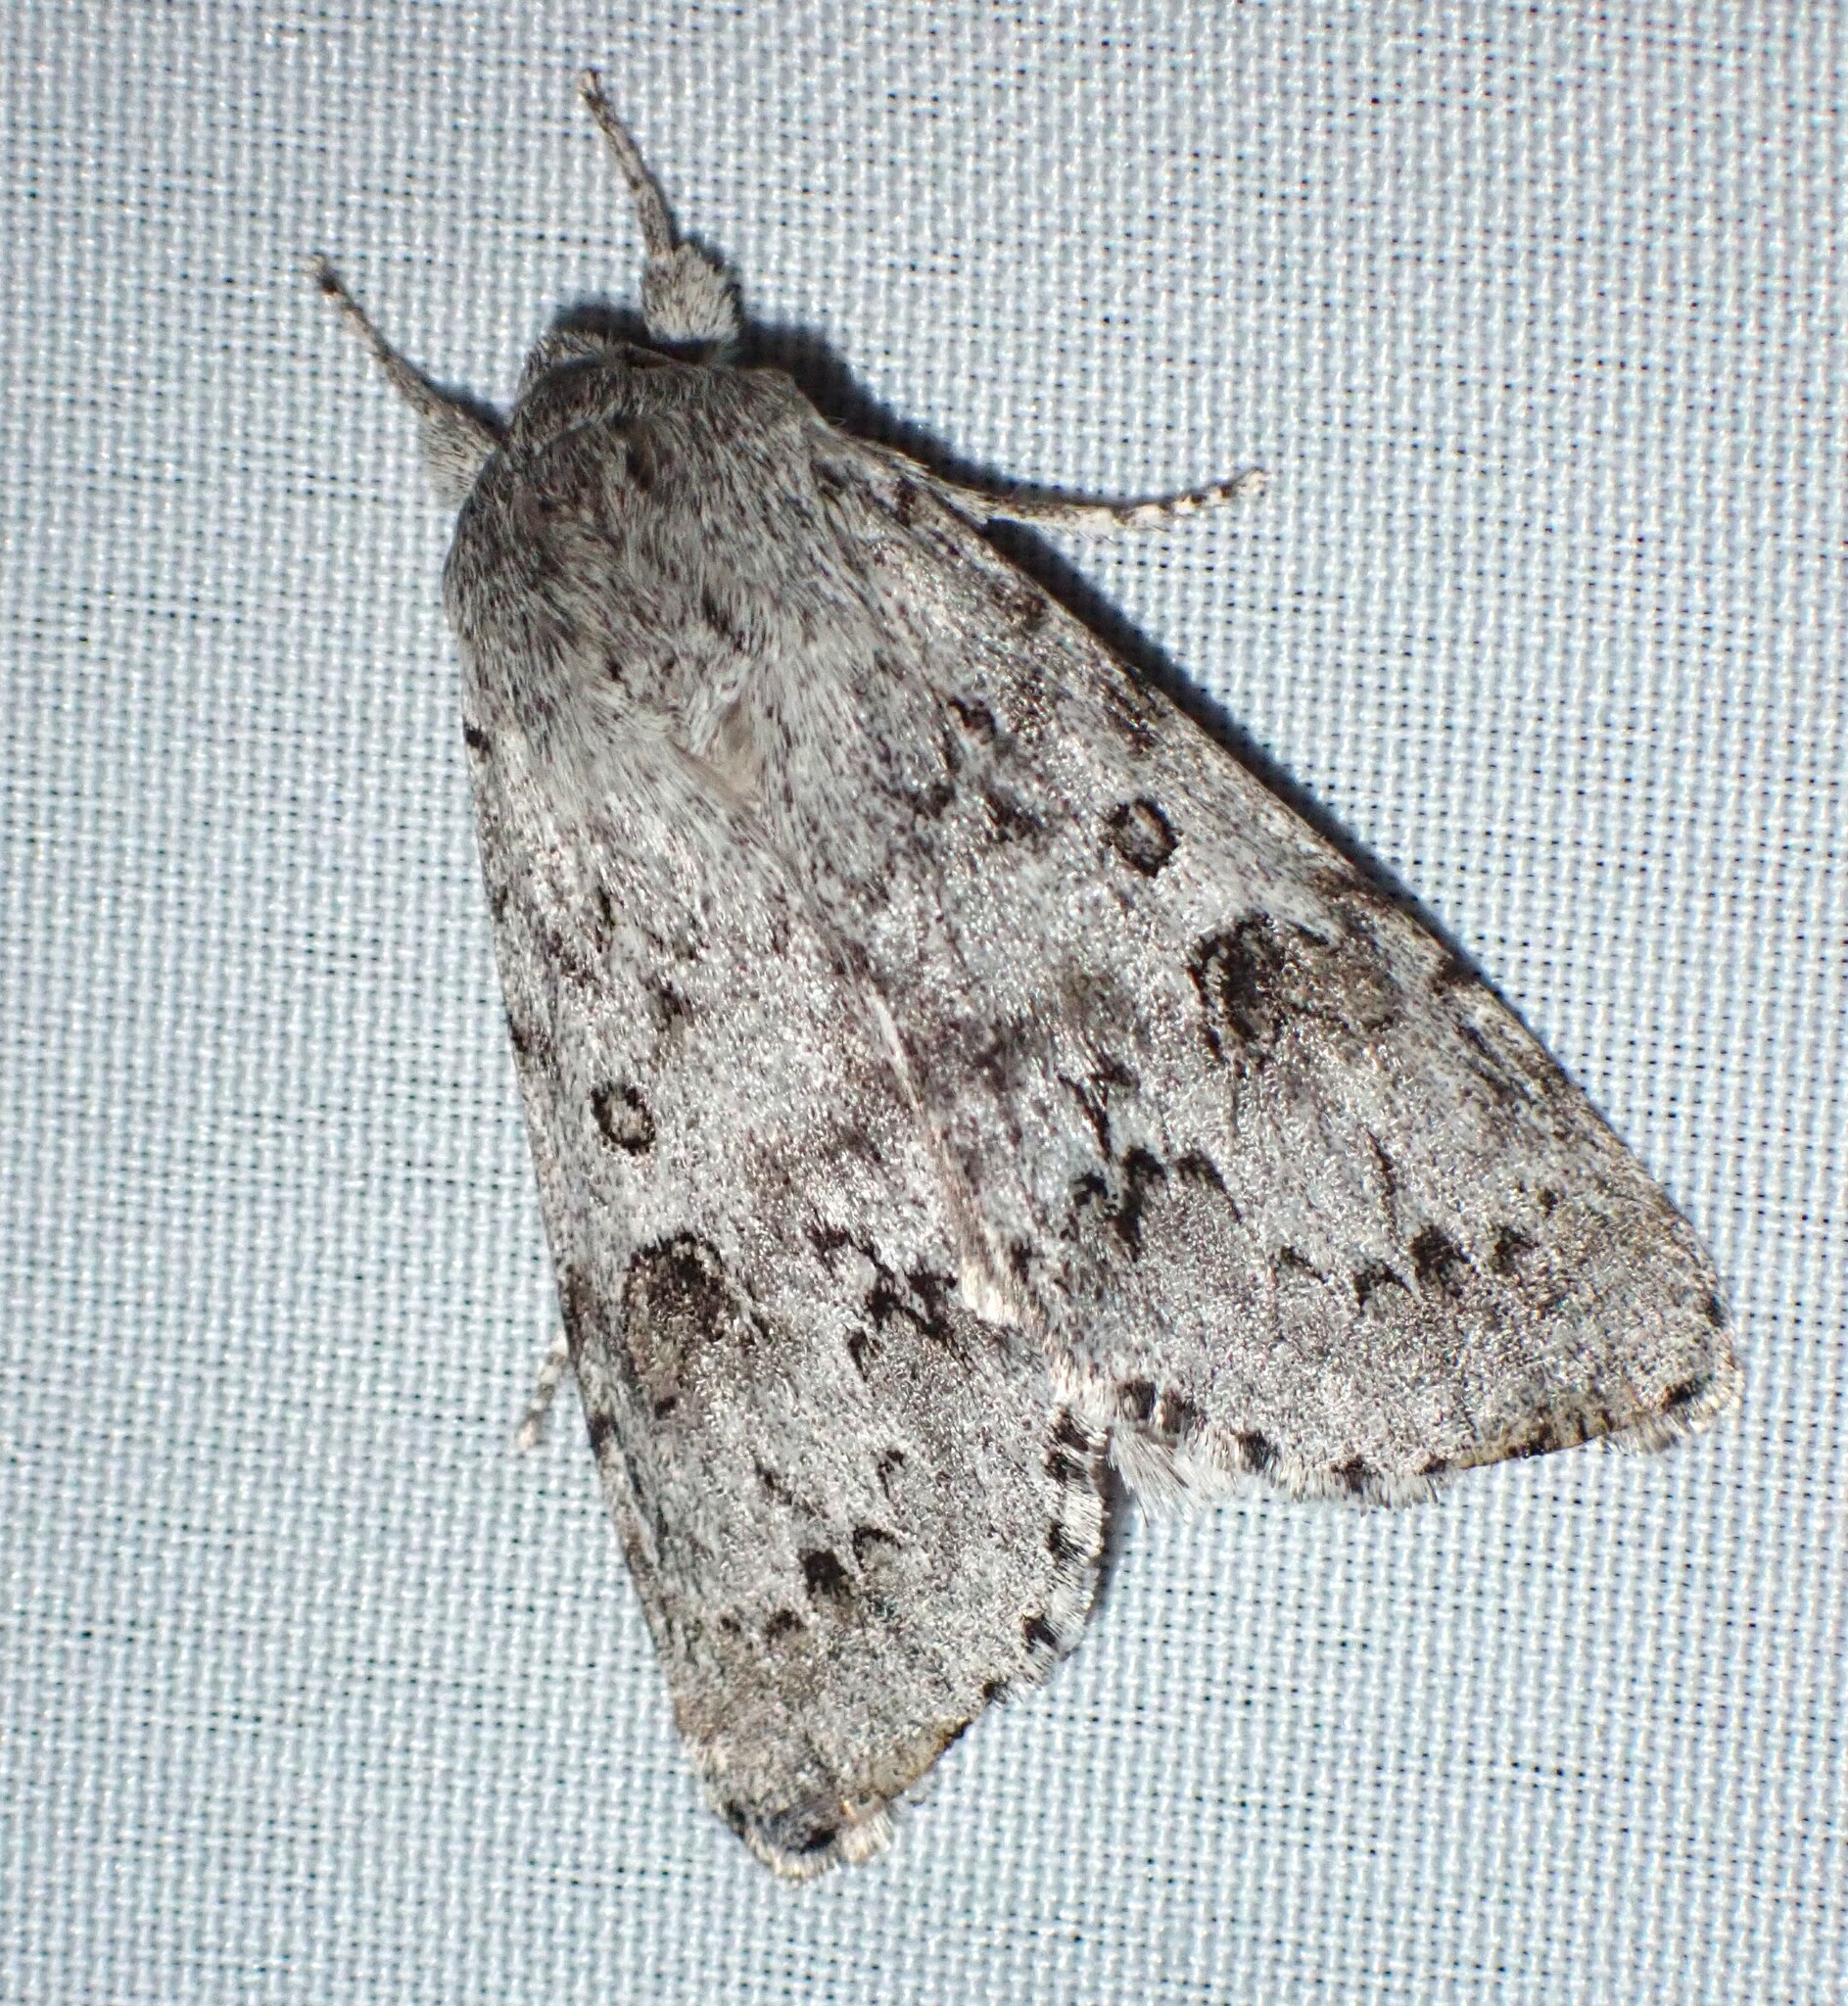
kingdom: Animalia
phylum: Arthropoda
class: Insecta
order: Lepidoptera
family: Noctuidae
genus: Acronicta
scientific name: Acronicta insita
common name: Large gray dagger
